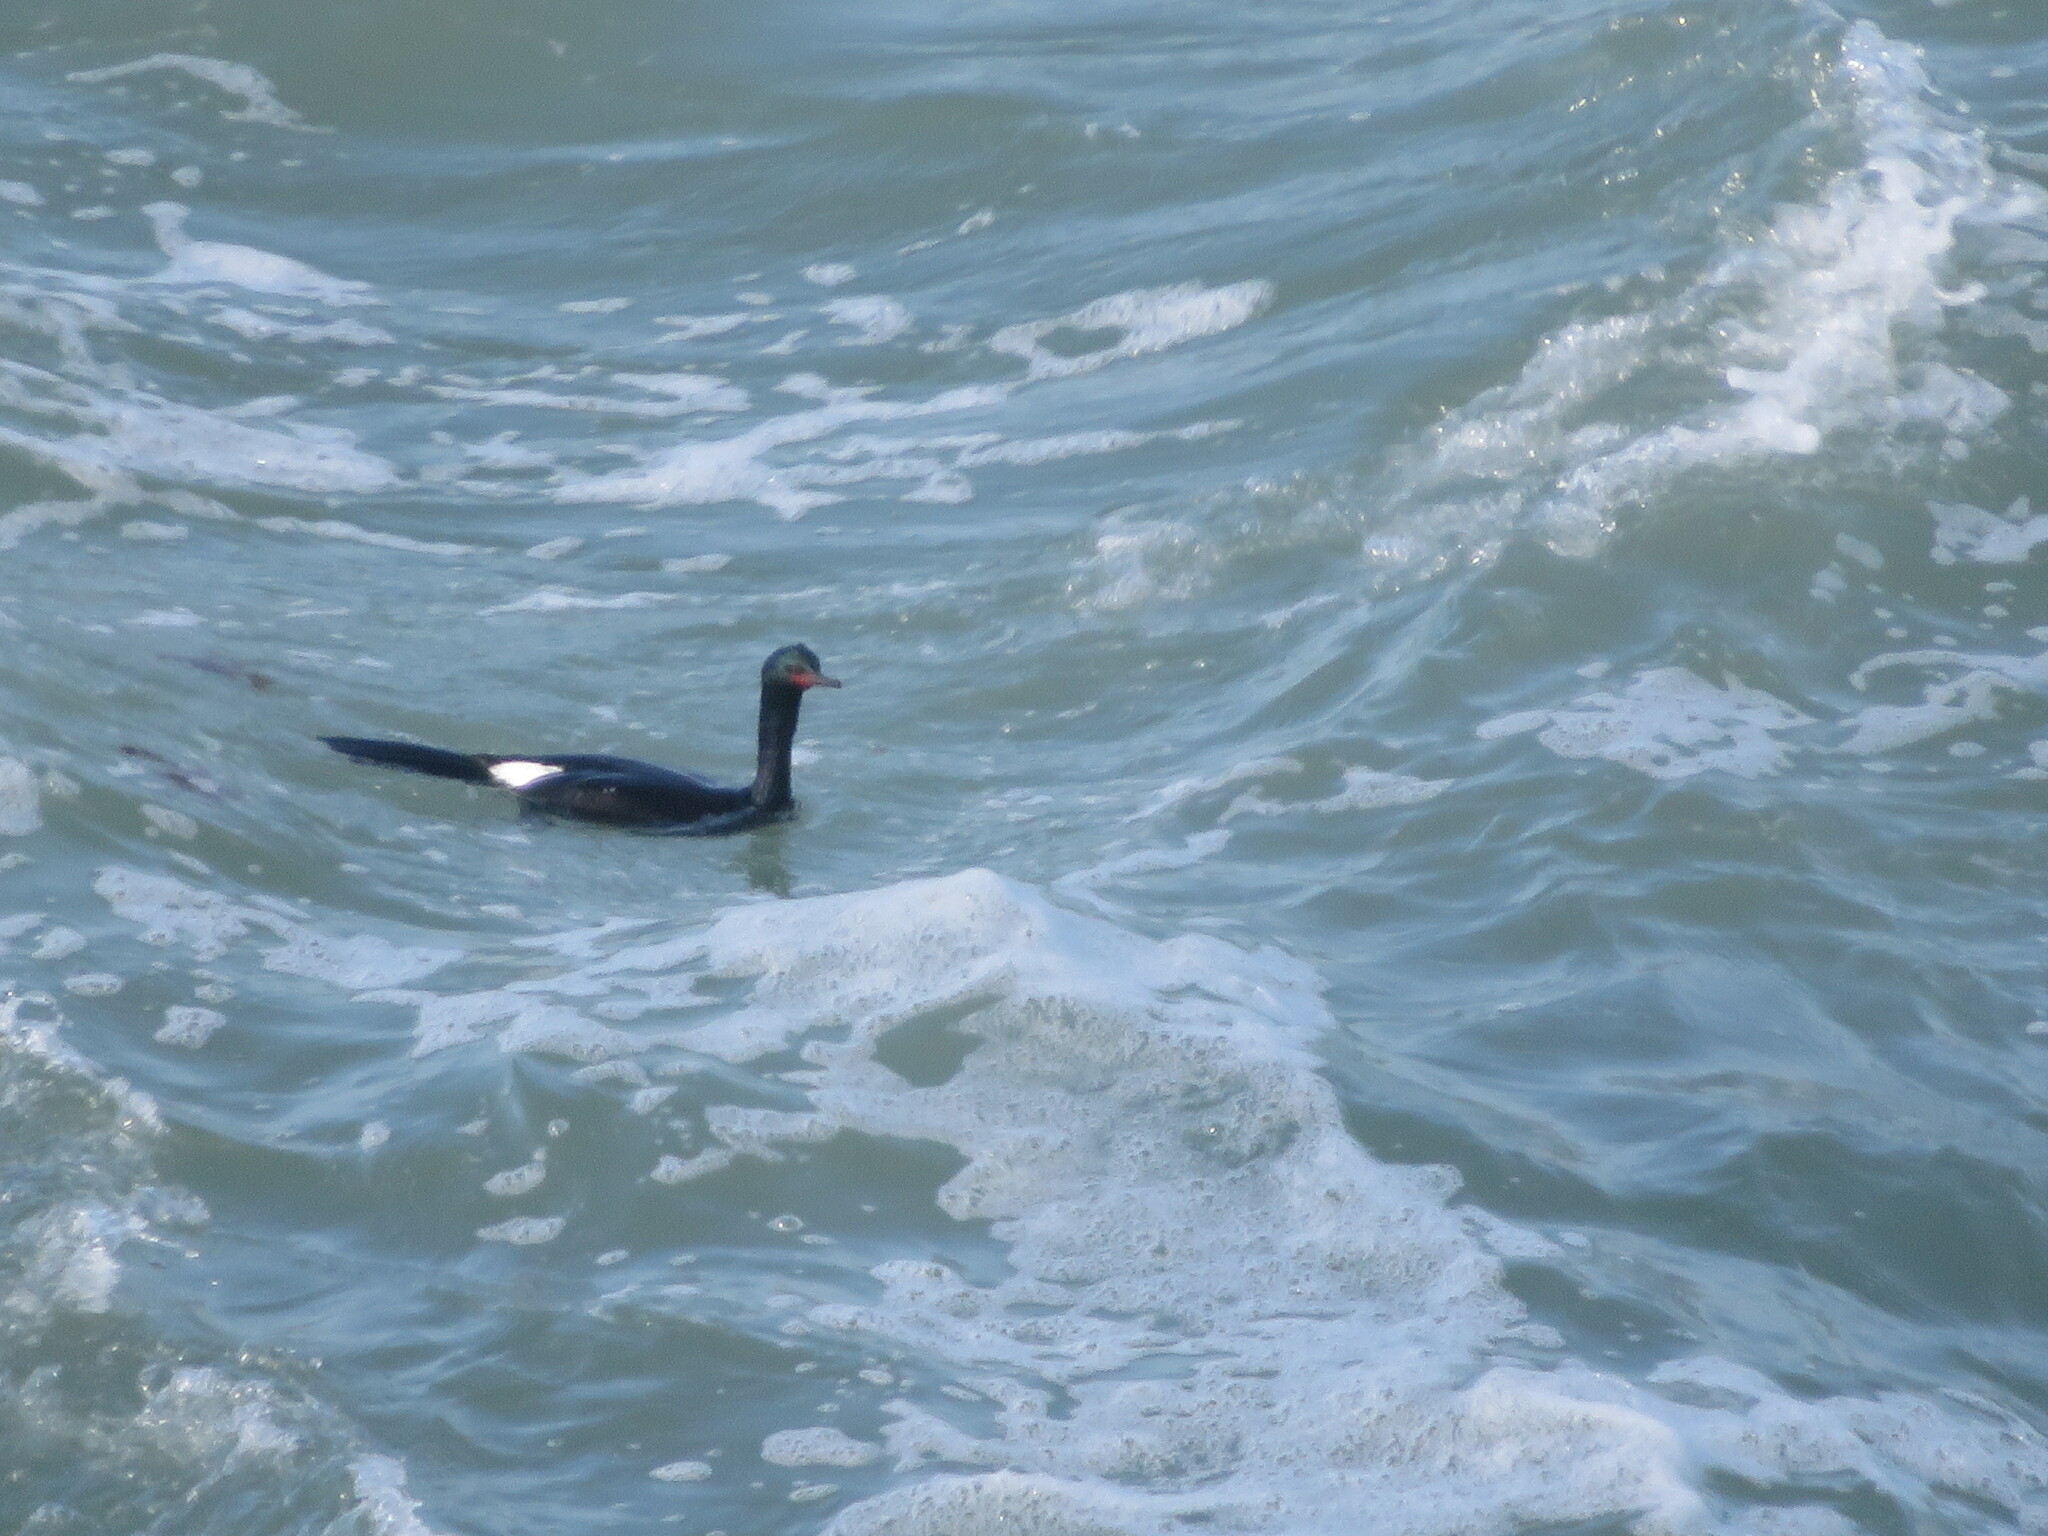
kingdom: Animalia
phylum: Chordata
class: Aves
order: Suliformes
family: Phalacrocoracidae
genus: Phalacrocorax
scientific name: Phalacrocorax pelagicus
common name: Pelagic cormorant
